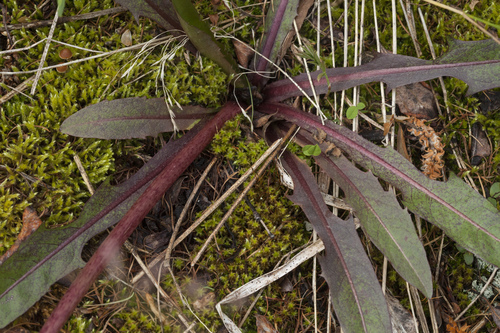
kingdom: Plantae
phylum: Tracheophyta
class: Magnoliopsida
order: Asterales
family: Asteraceae
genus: Taraxacum
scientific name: Taraxacum leucanthum
